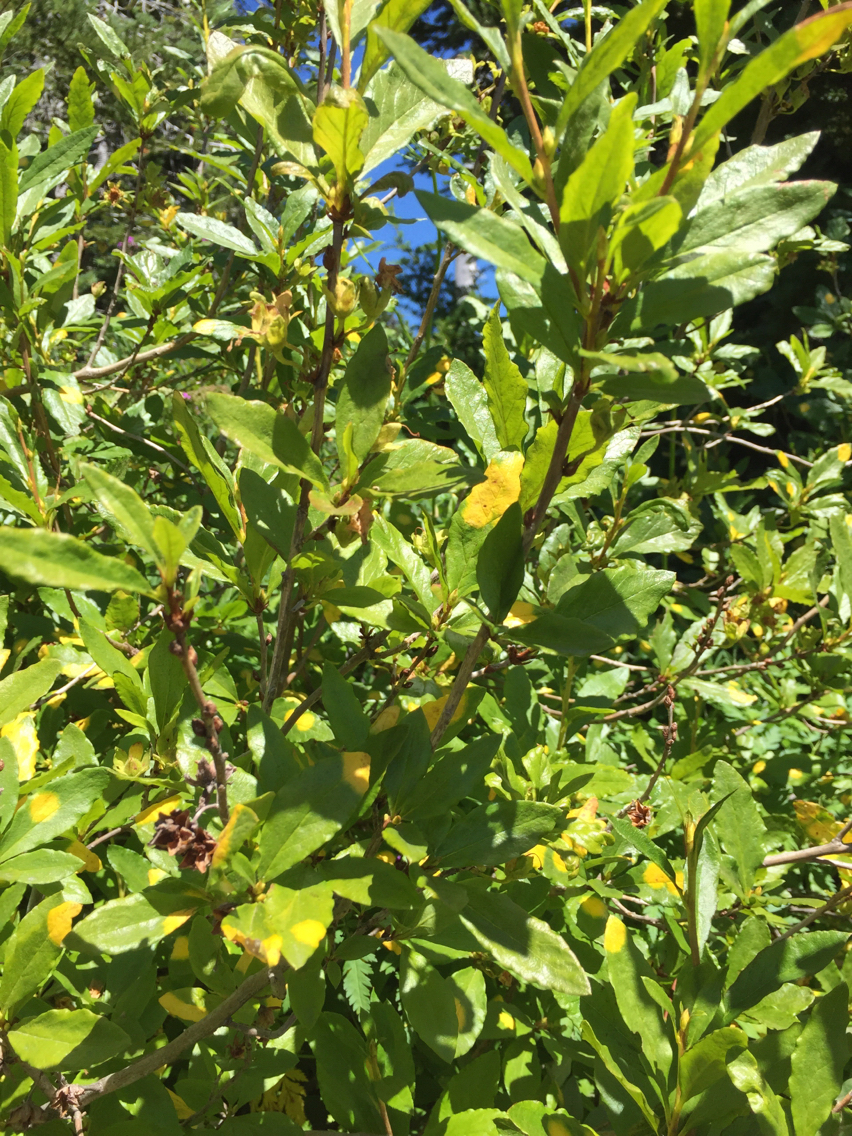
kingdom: Plantae
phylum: Tracheophyta
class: Magnoliopsida
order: Ericales
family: Ericaceae
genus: Rhododendron
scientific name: Rhododendron albiflorum
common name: White rhododendron
